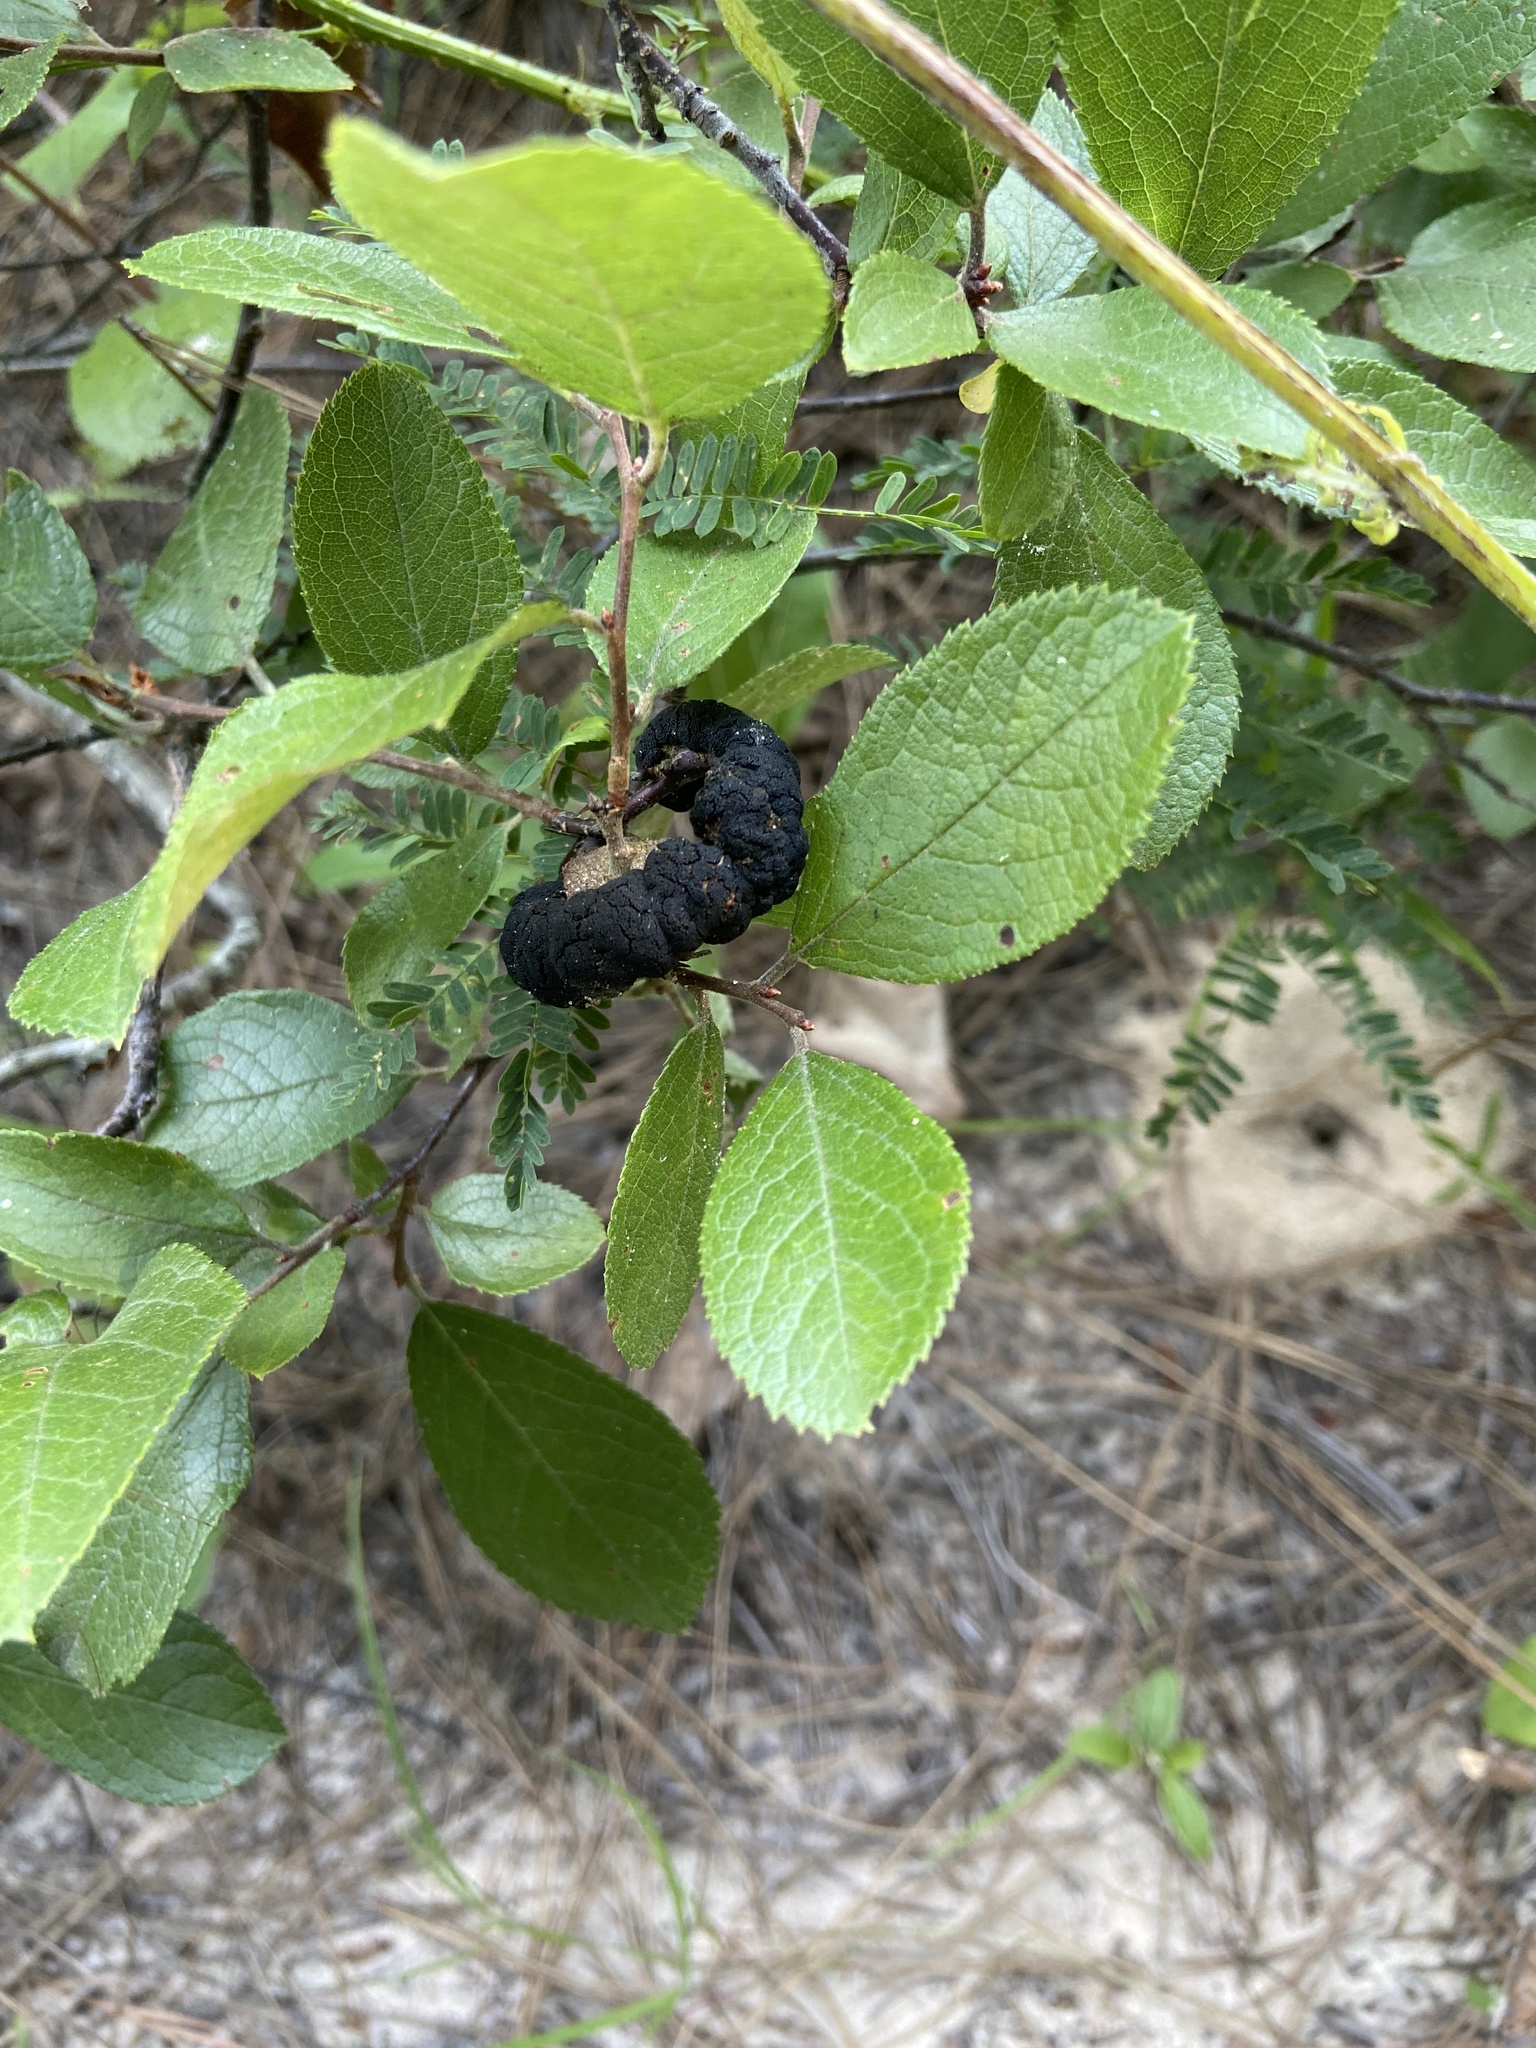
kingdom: Fungi
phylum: Ascomycota
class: Dothideomycetes
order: Venturiales
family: Venturiaceae
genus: Apiosporina
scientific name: Apiosporina morbosa
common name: Black knot
